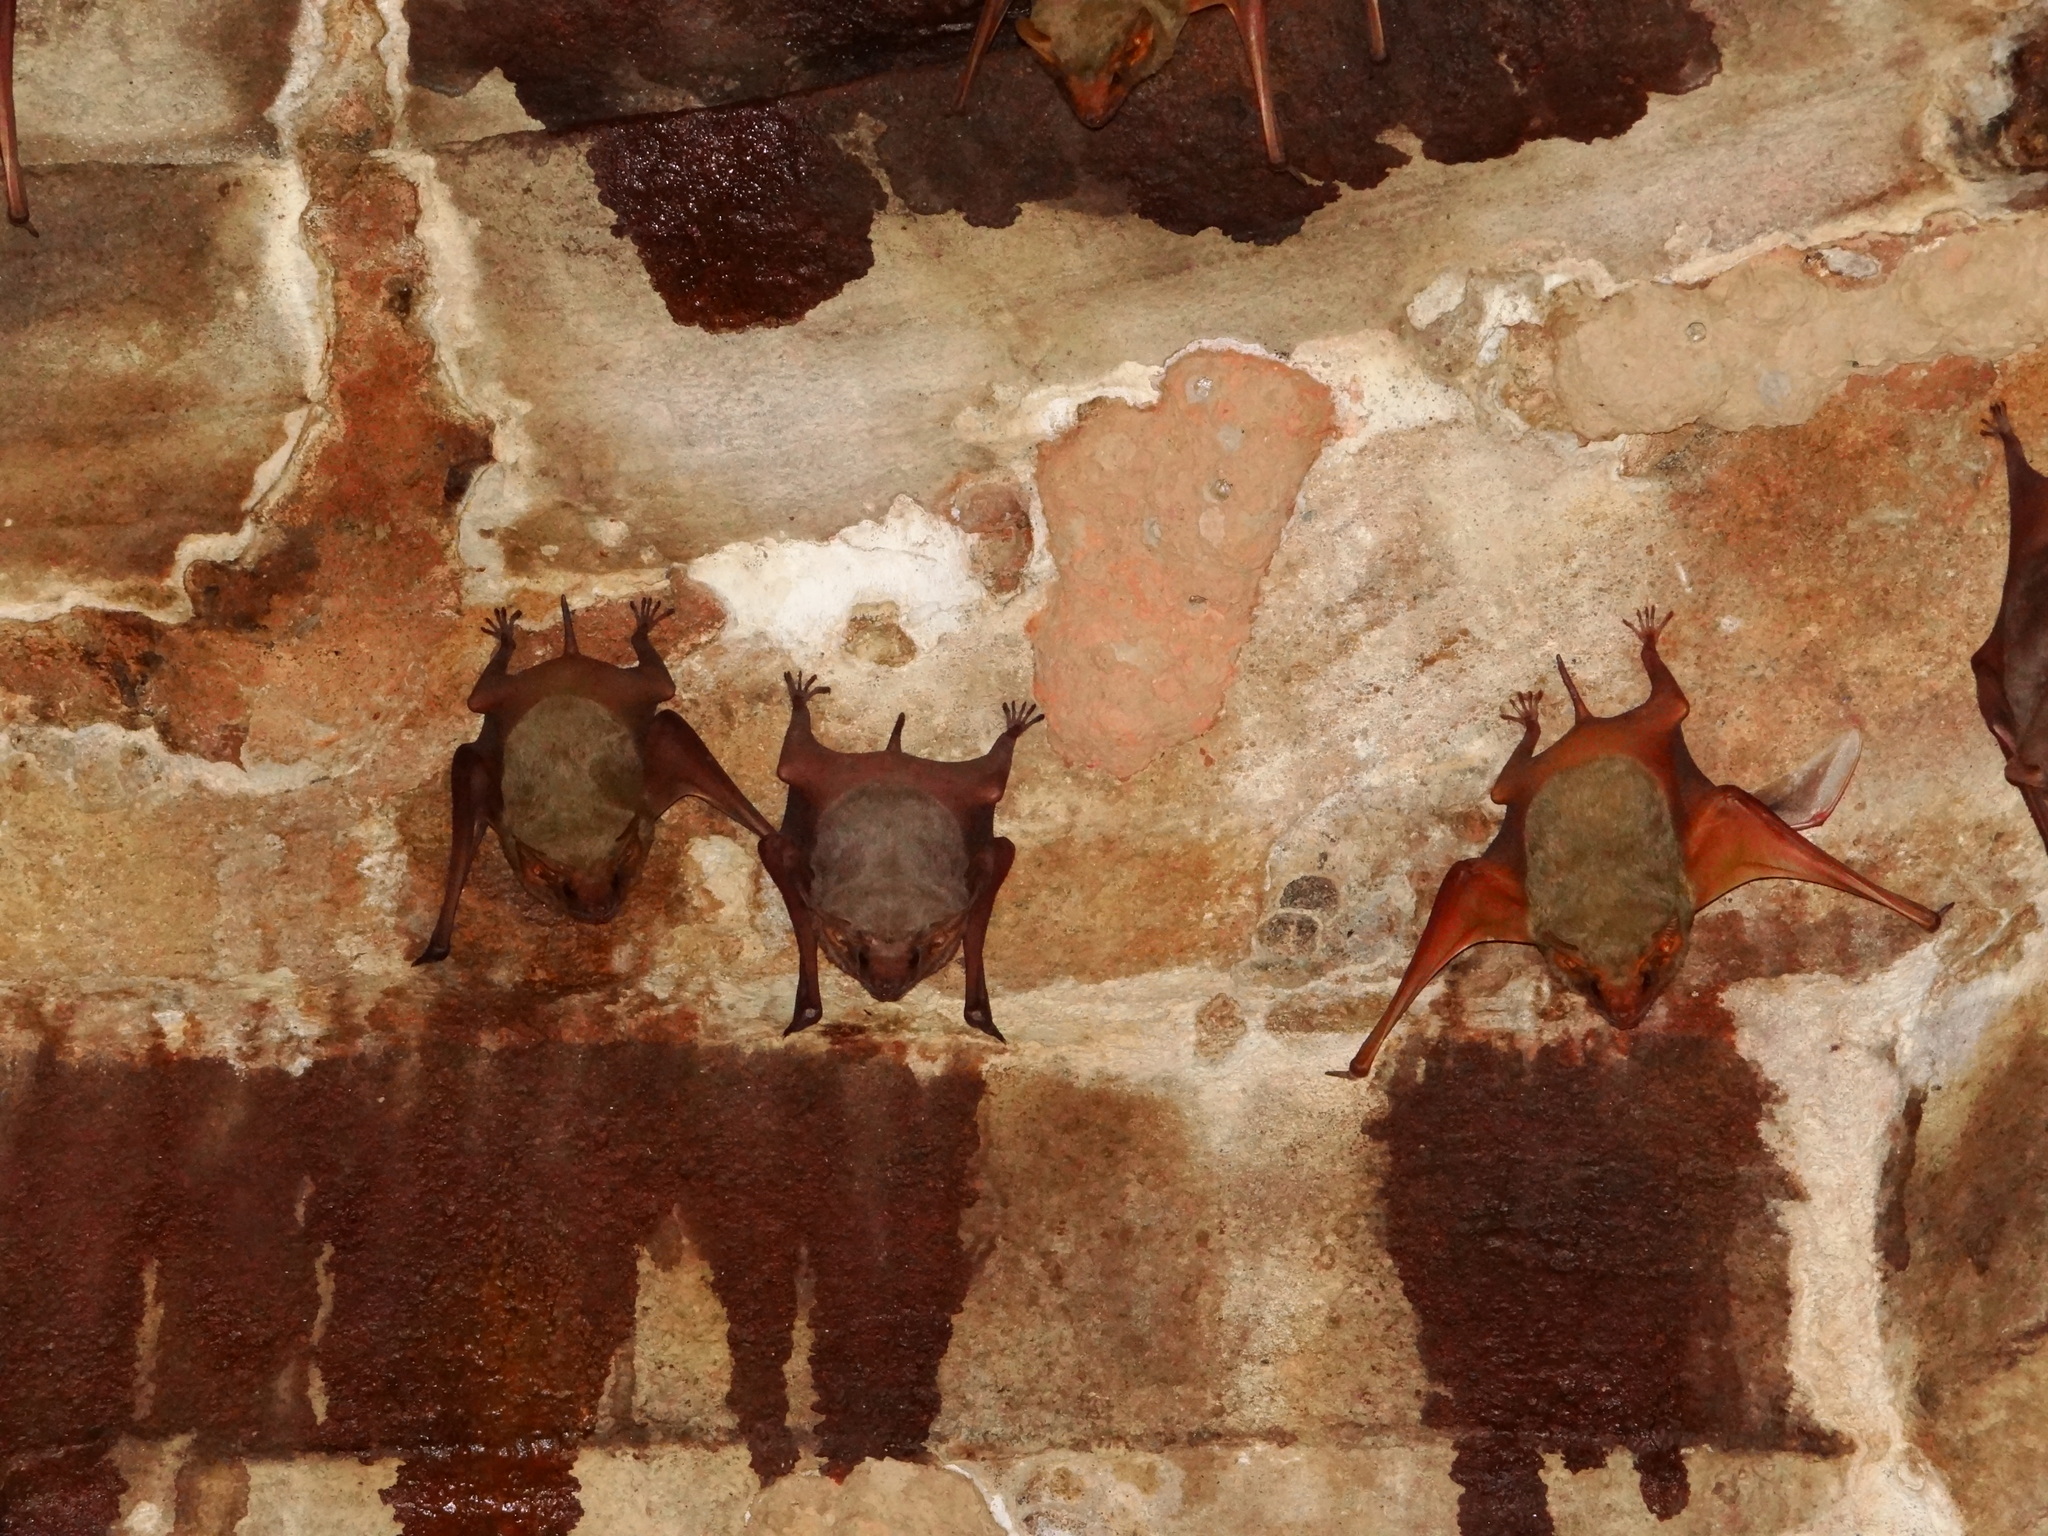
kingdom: Animalia
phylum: Chordata
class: Mammalia
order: Chiroptera
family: Emballonuridae
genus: Taphozous
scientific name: Taphozous nudiventris
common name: Naked-rumped tomb bat
